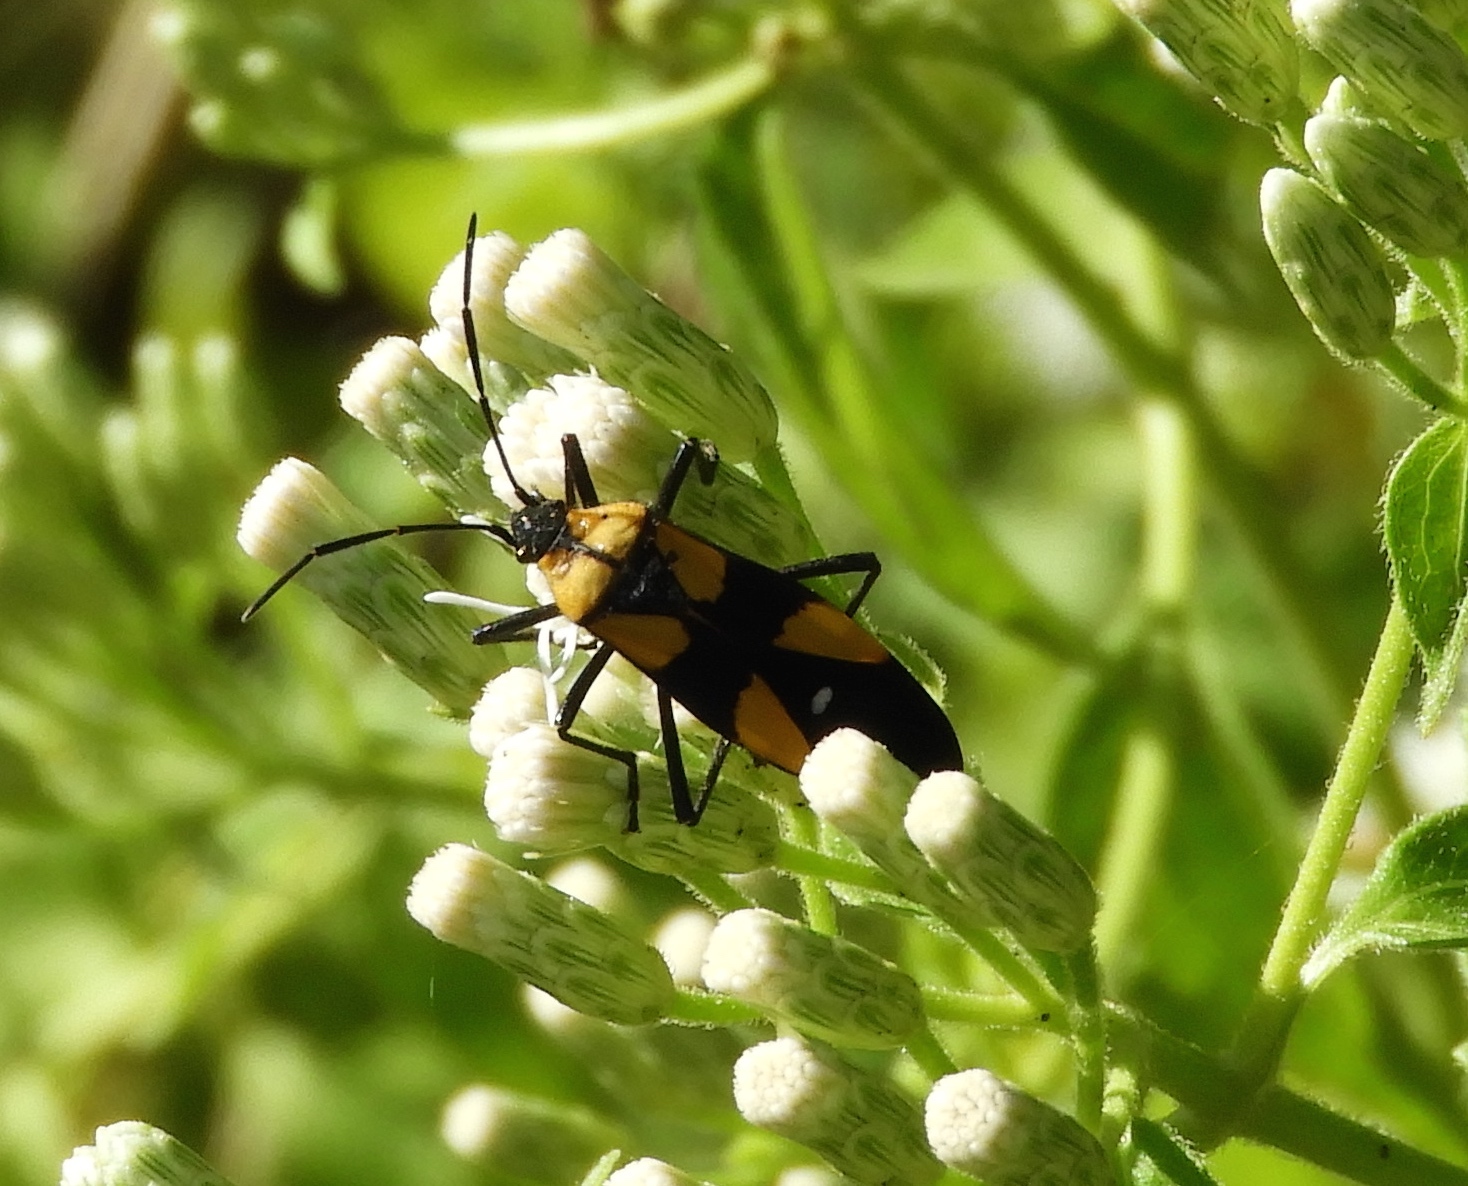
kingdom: Animalia
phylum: Arthropoda
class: Insecta
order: Hemiptera
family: Lygaeidae
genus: Oncopeltus
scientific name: Oncopeltus
